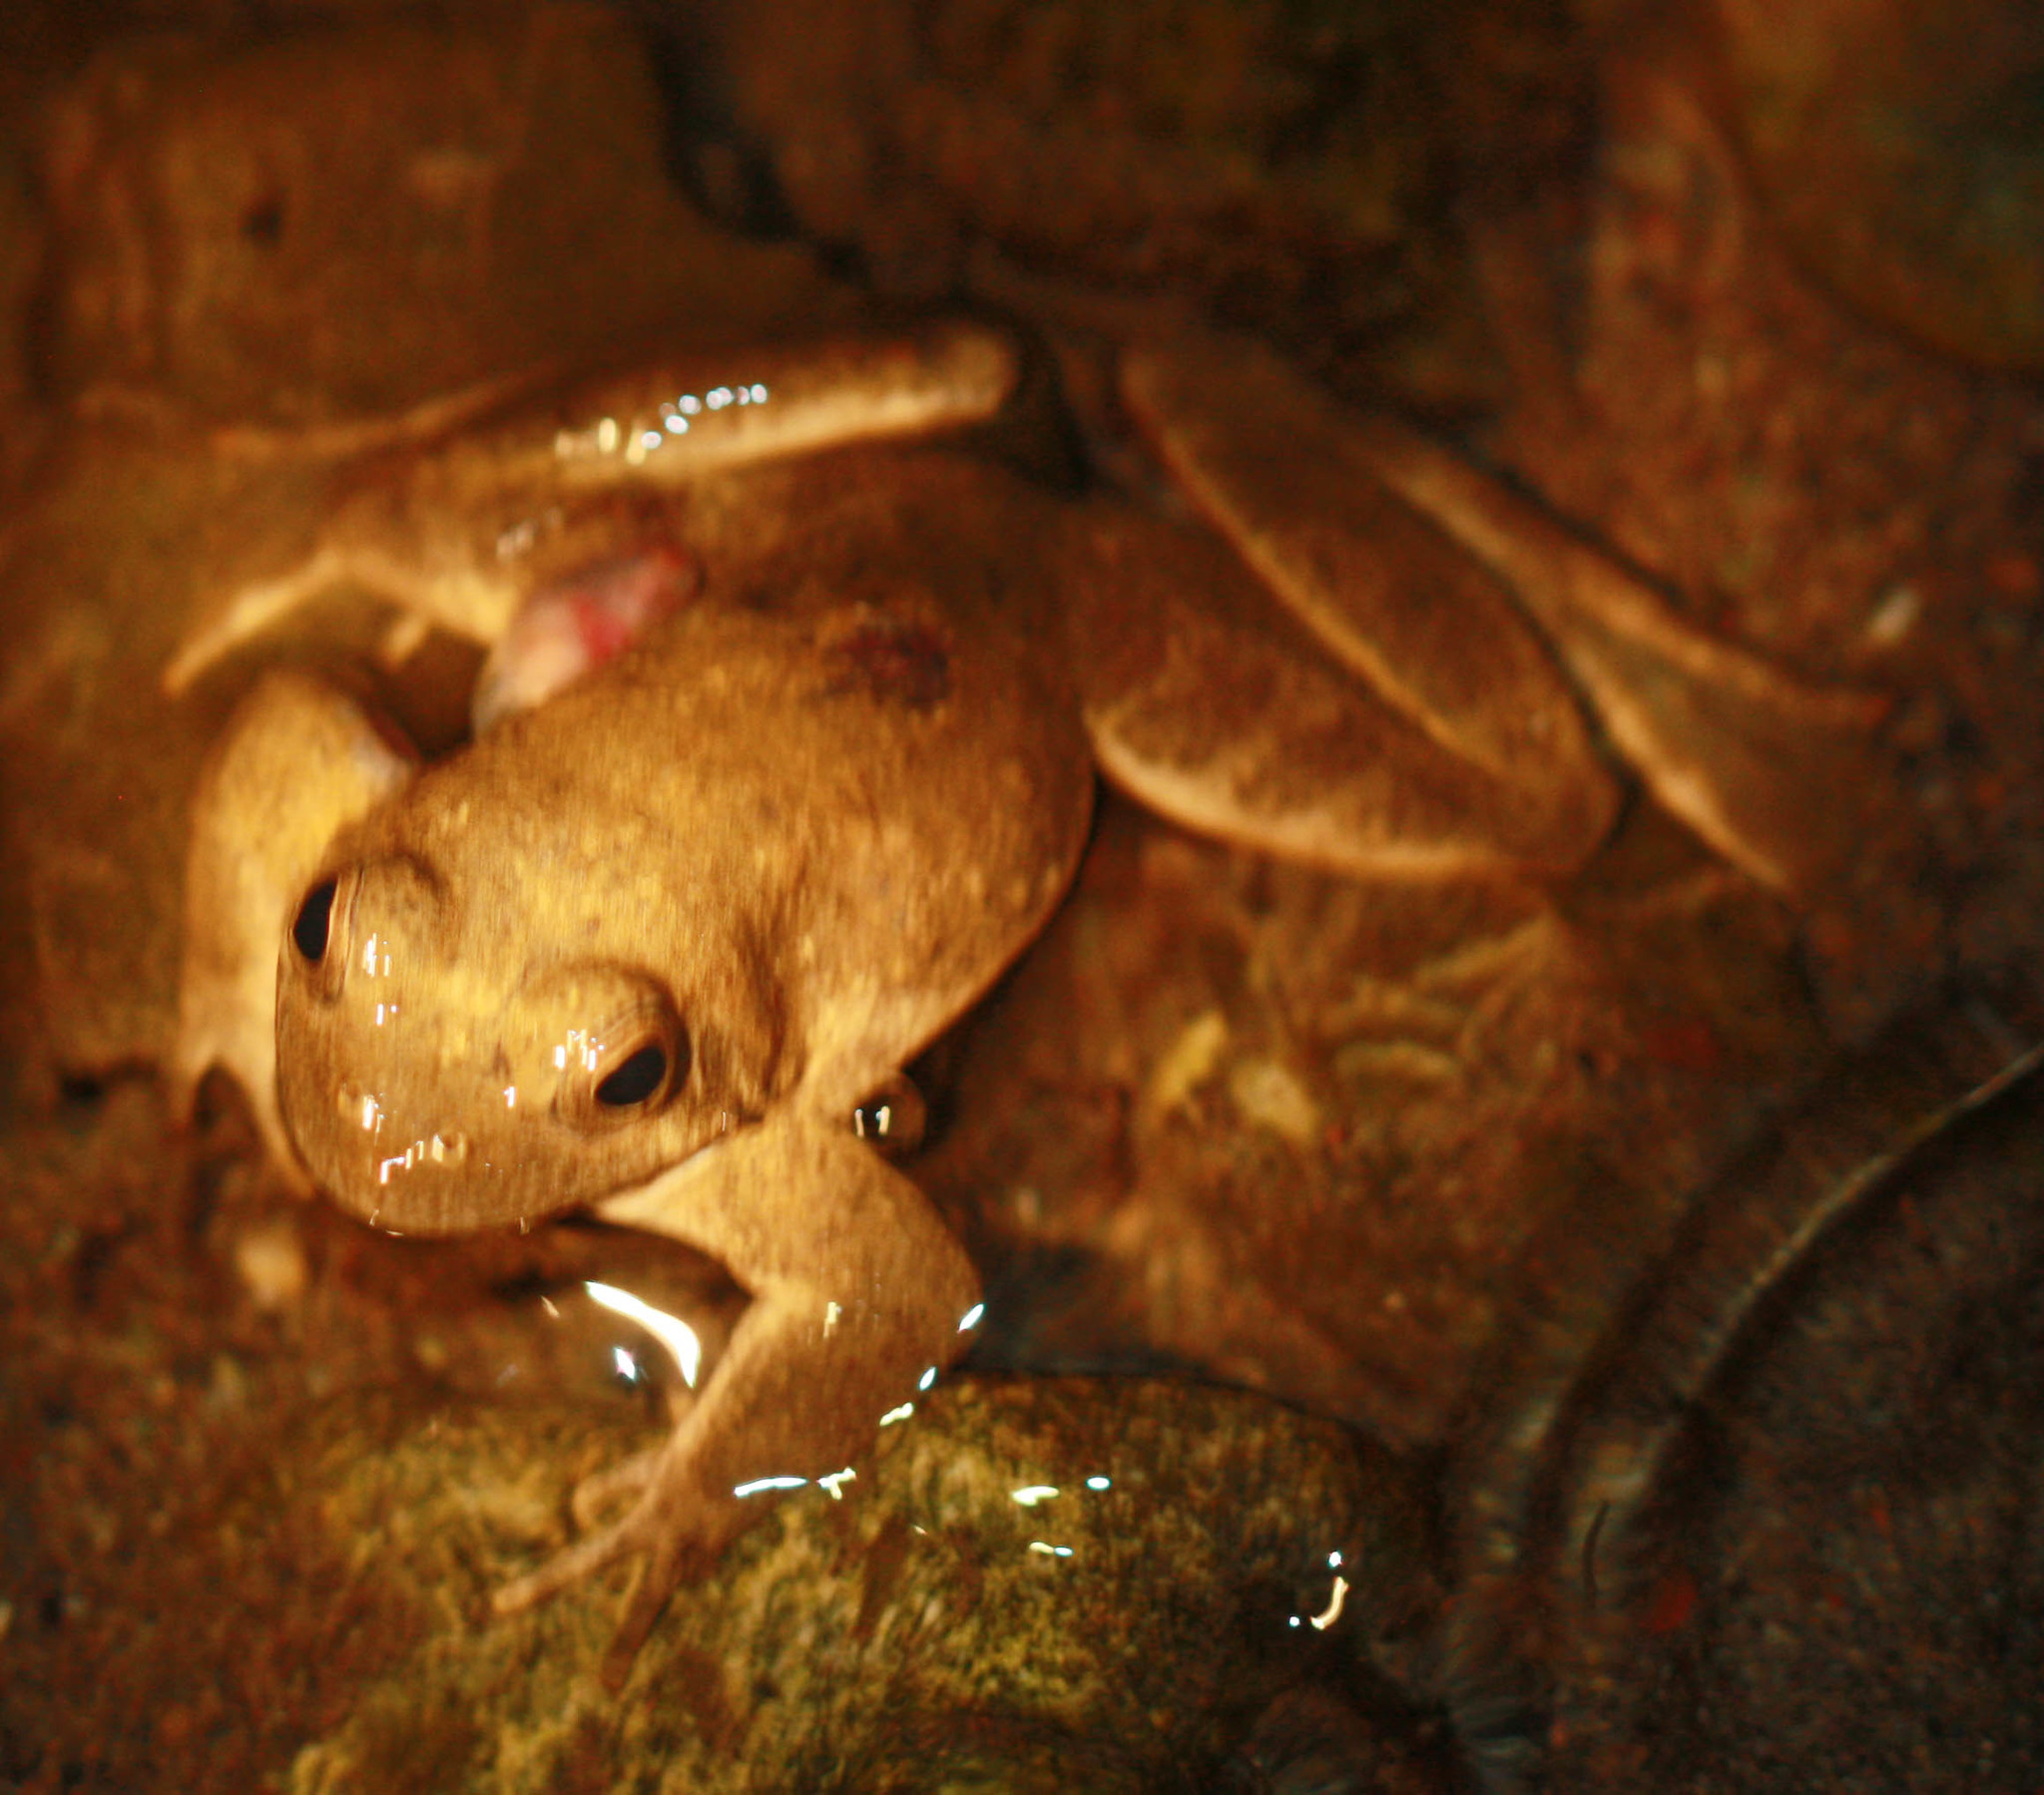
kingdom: Animalia
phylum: Chordata
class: Amphibia
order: Anura
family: Ranidae
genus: Rana
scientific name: Rana boylii
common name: Foothill yellow-legged frog
